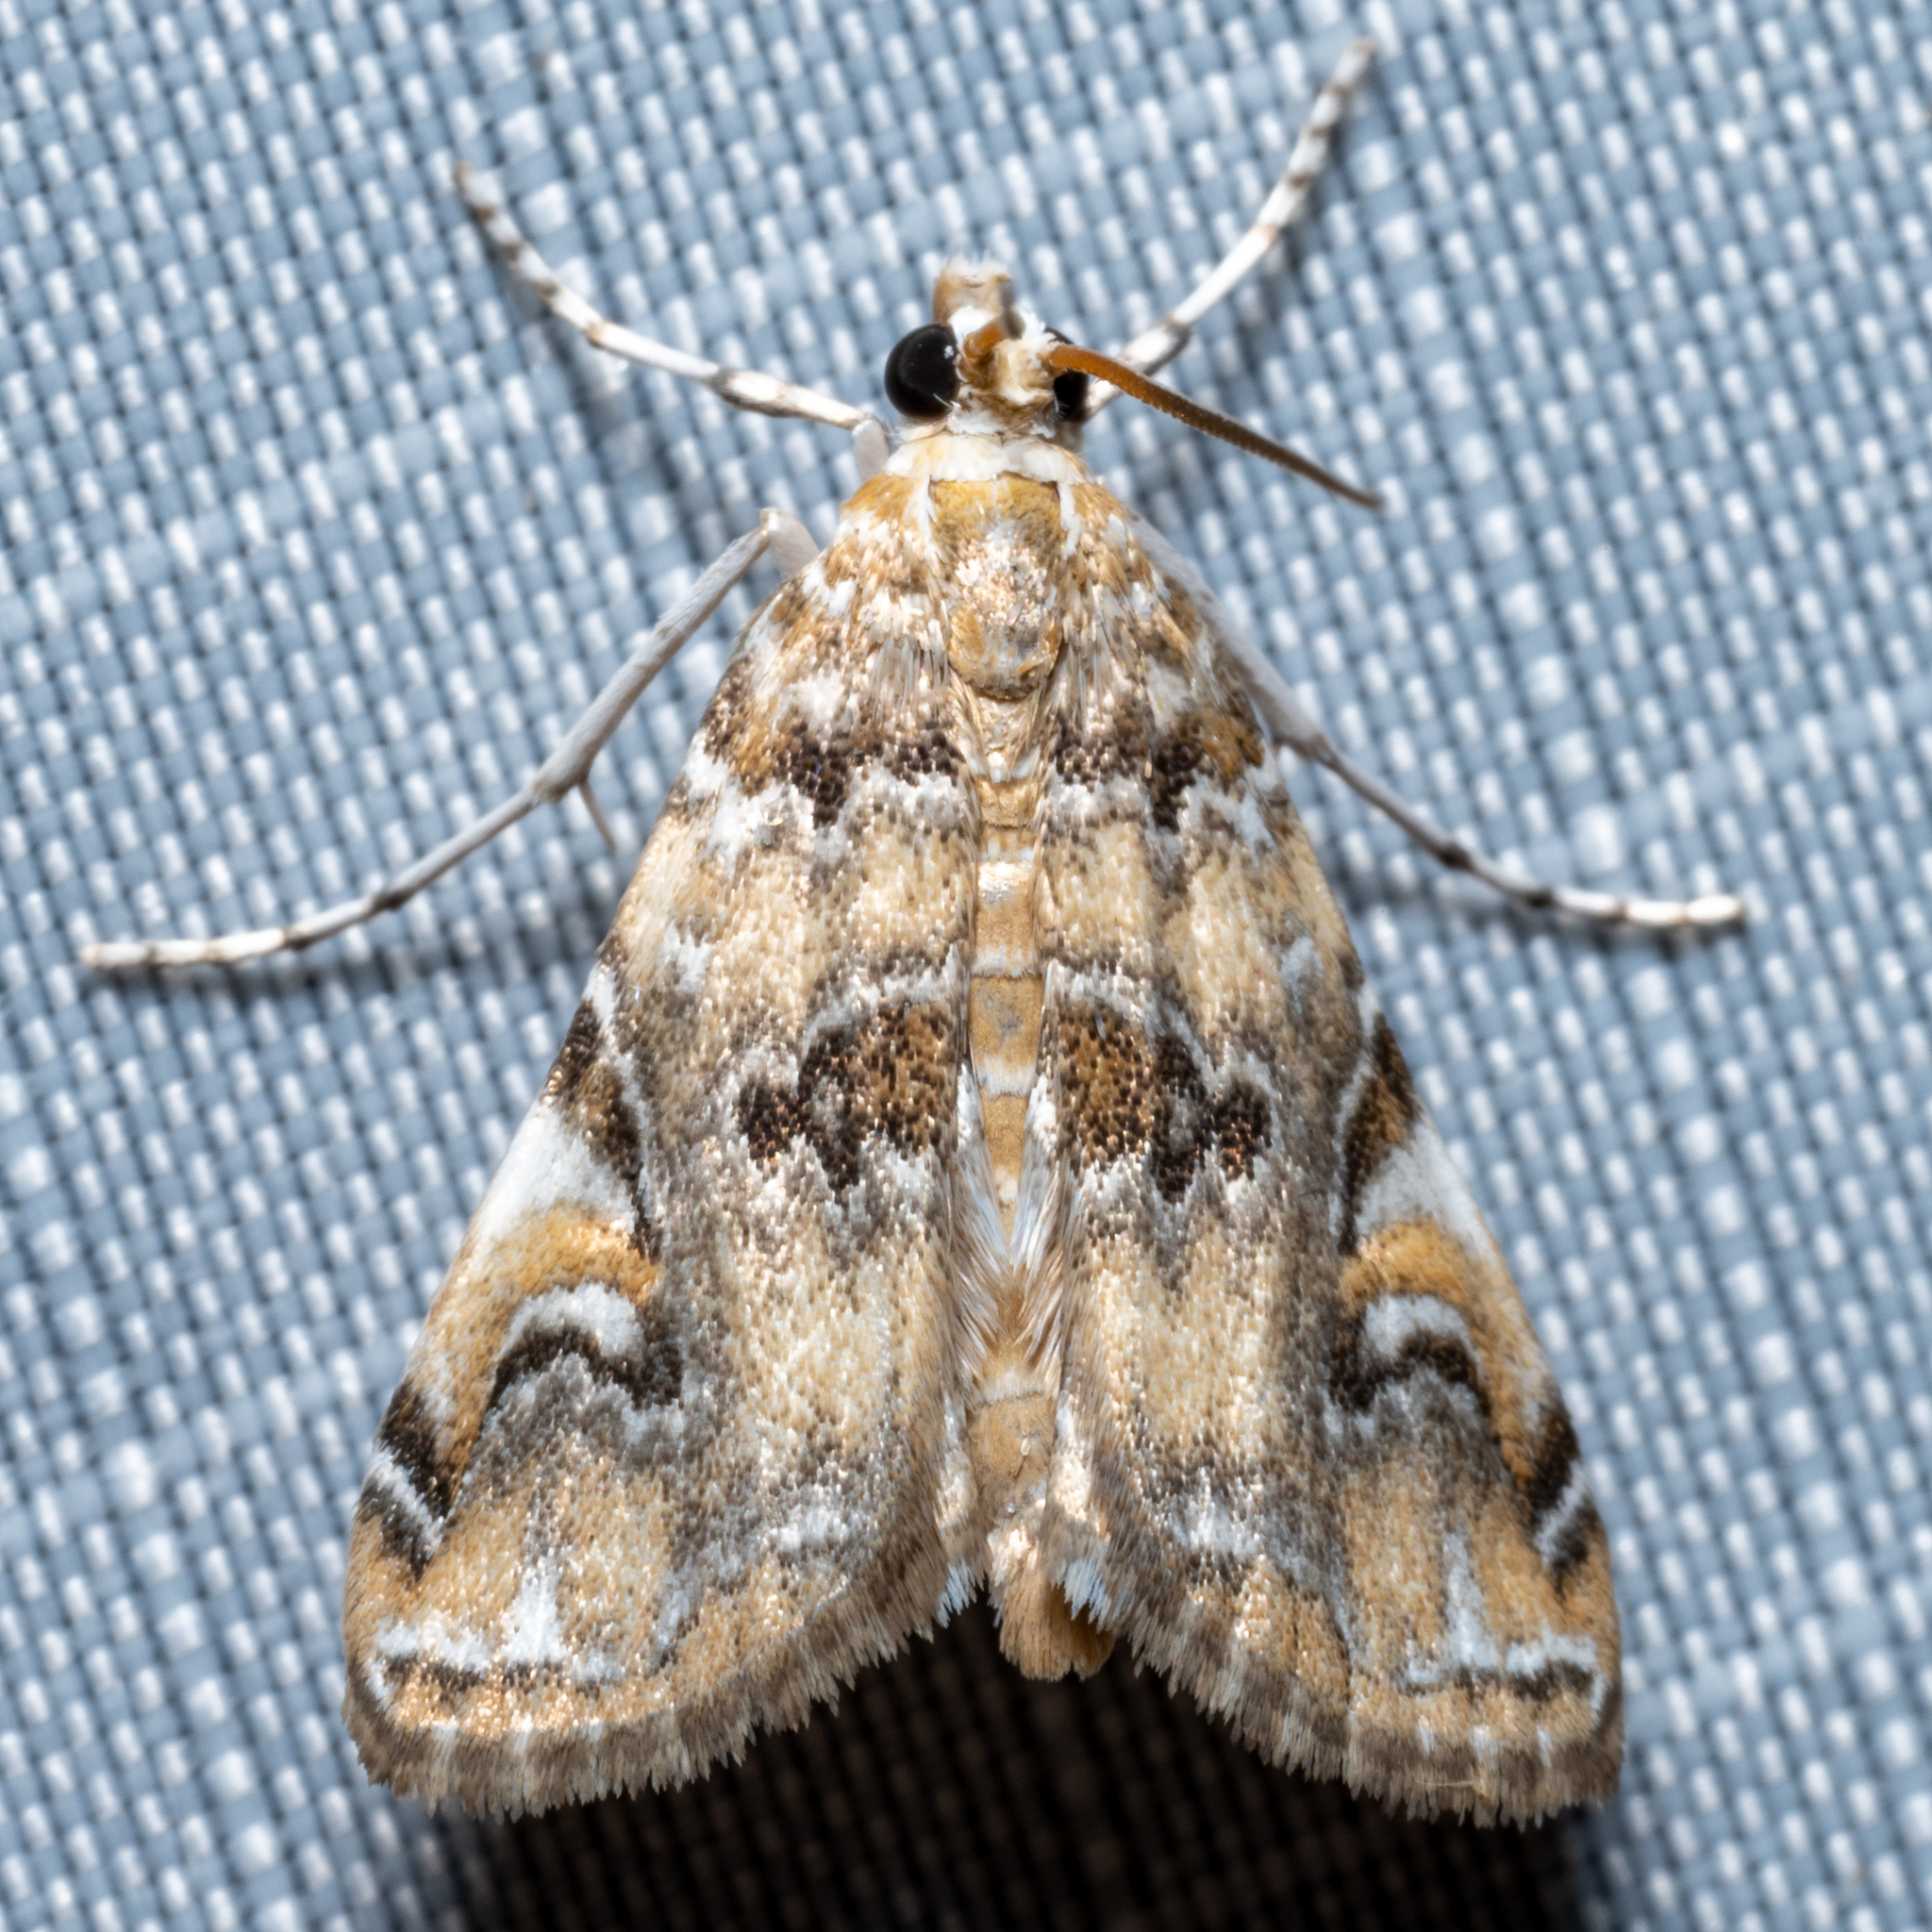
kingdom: Animalia
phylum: Arthropoda
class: Insecta
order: Lepidoptera
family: Crambidae
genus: Elophila
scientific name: Elophila gyralis
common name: Waterlily borer moth
